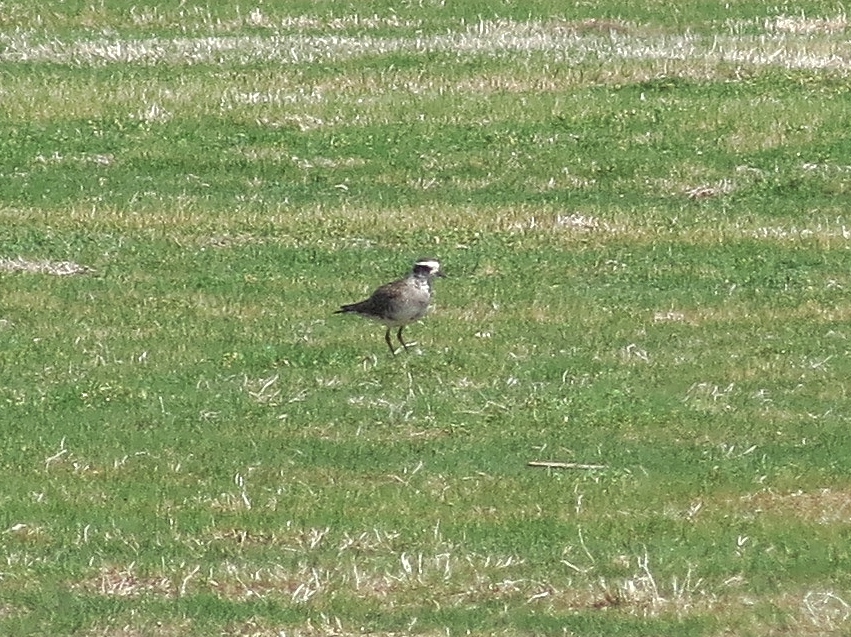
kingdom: Animalia
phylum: Chordata
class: Aves
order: Charadriiformes
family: Charadriidae
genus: Pluvialis
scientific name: Pluvialis dominica
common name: American golden plover
